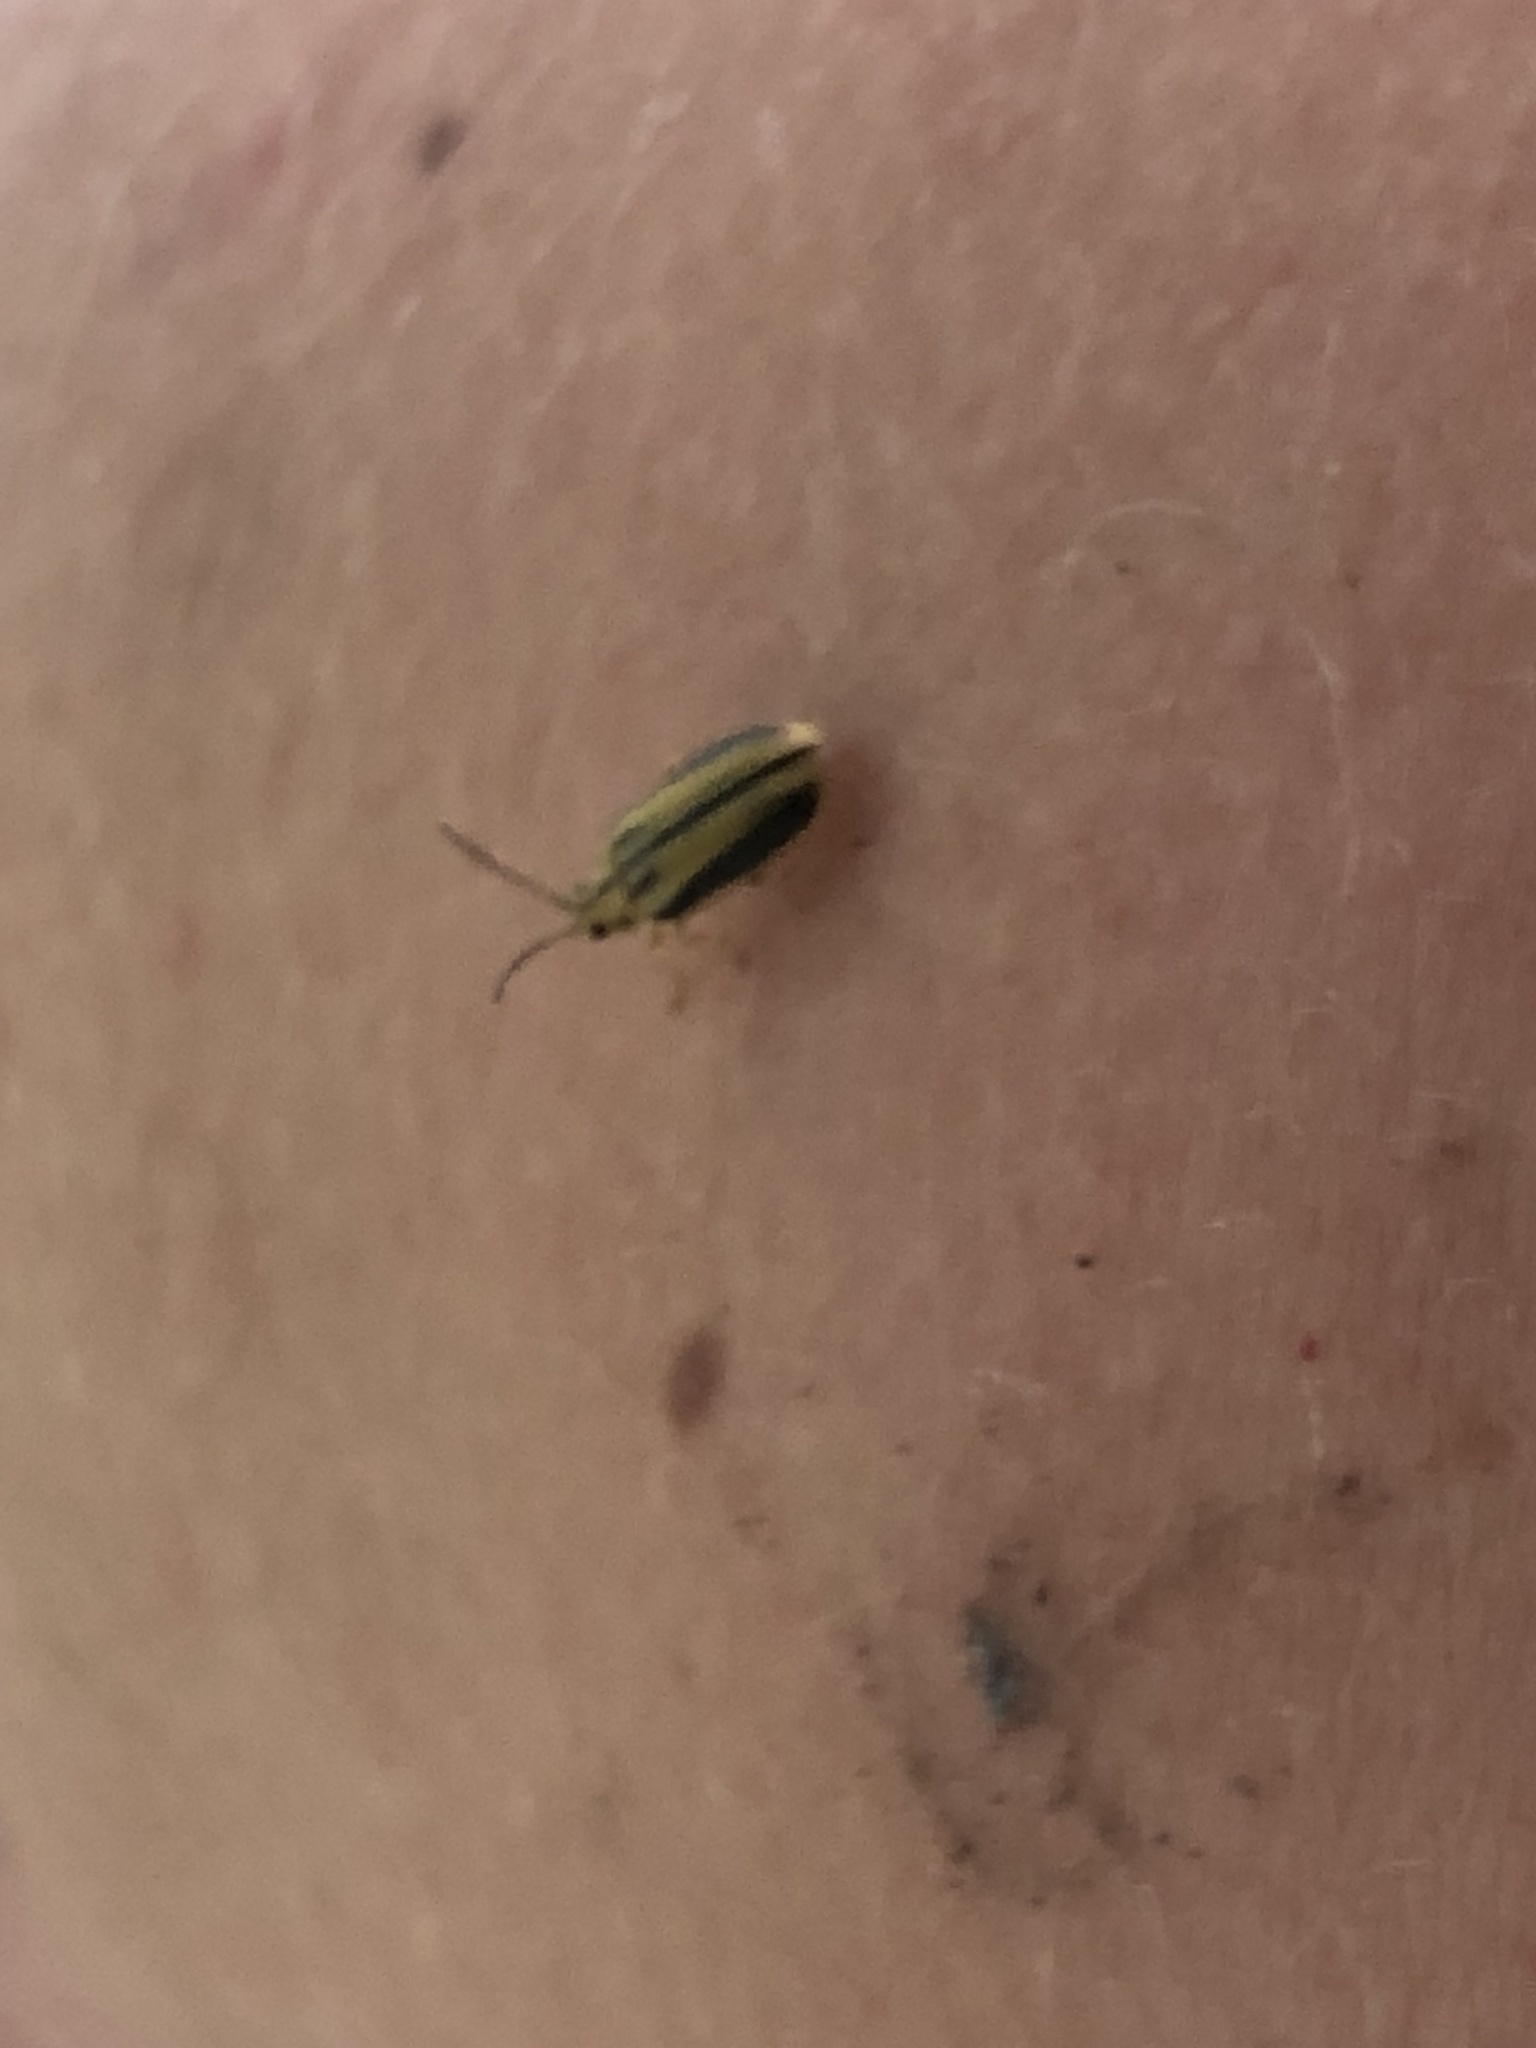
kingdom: Animalia
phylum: Arthropoda
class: Insecta
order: Coleoptera
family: Chrysomelidae
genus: Xanthogaleruca
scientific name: Xanthogaleruca luteola
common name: Elm leaf beetle
